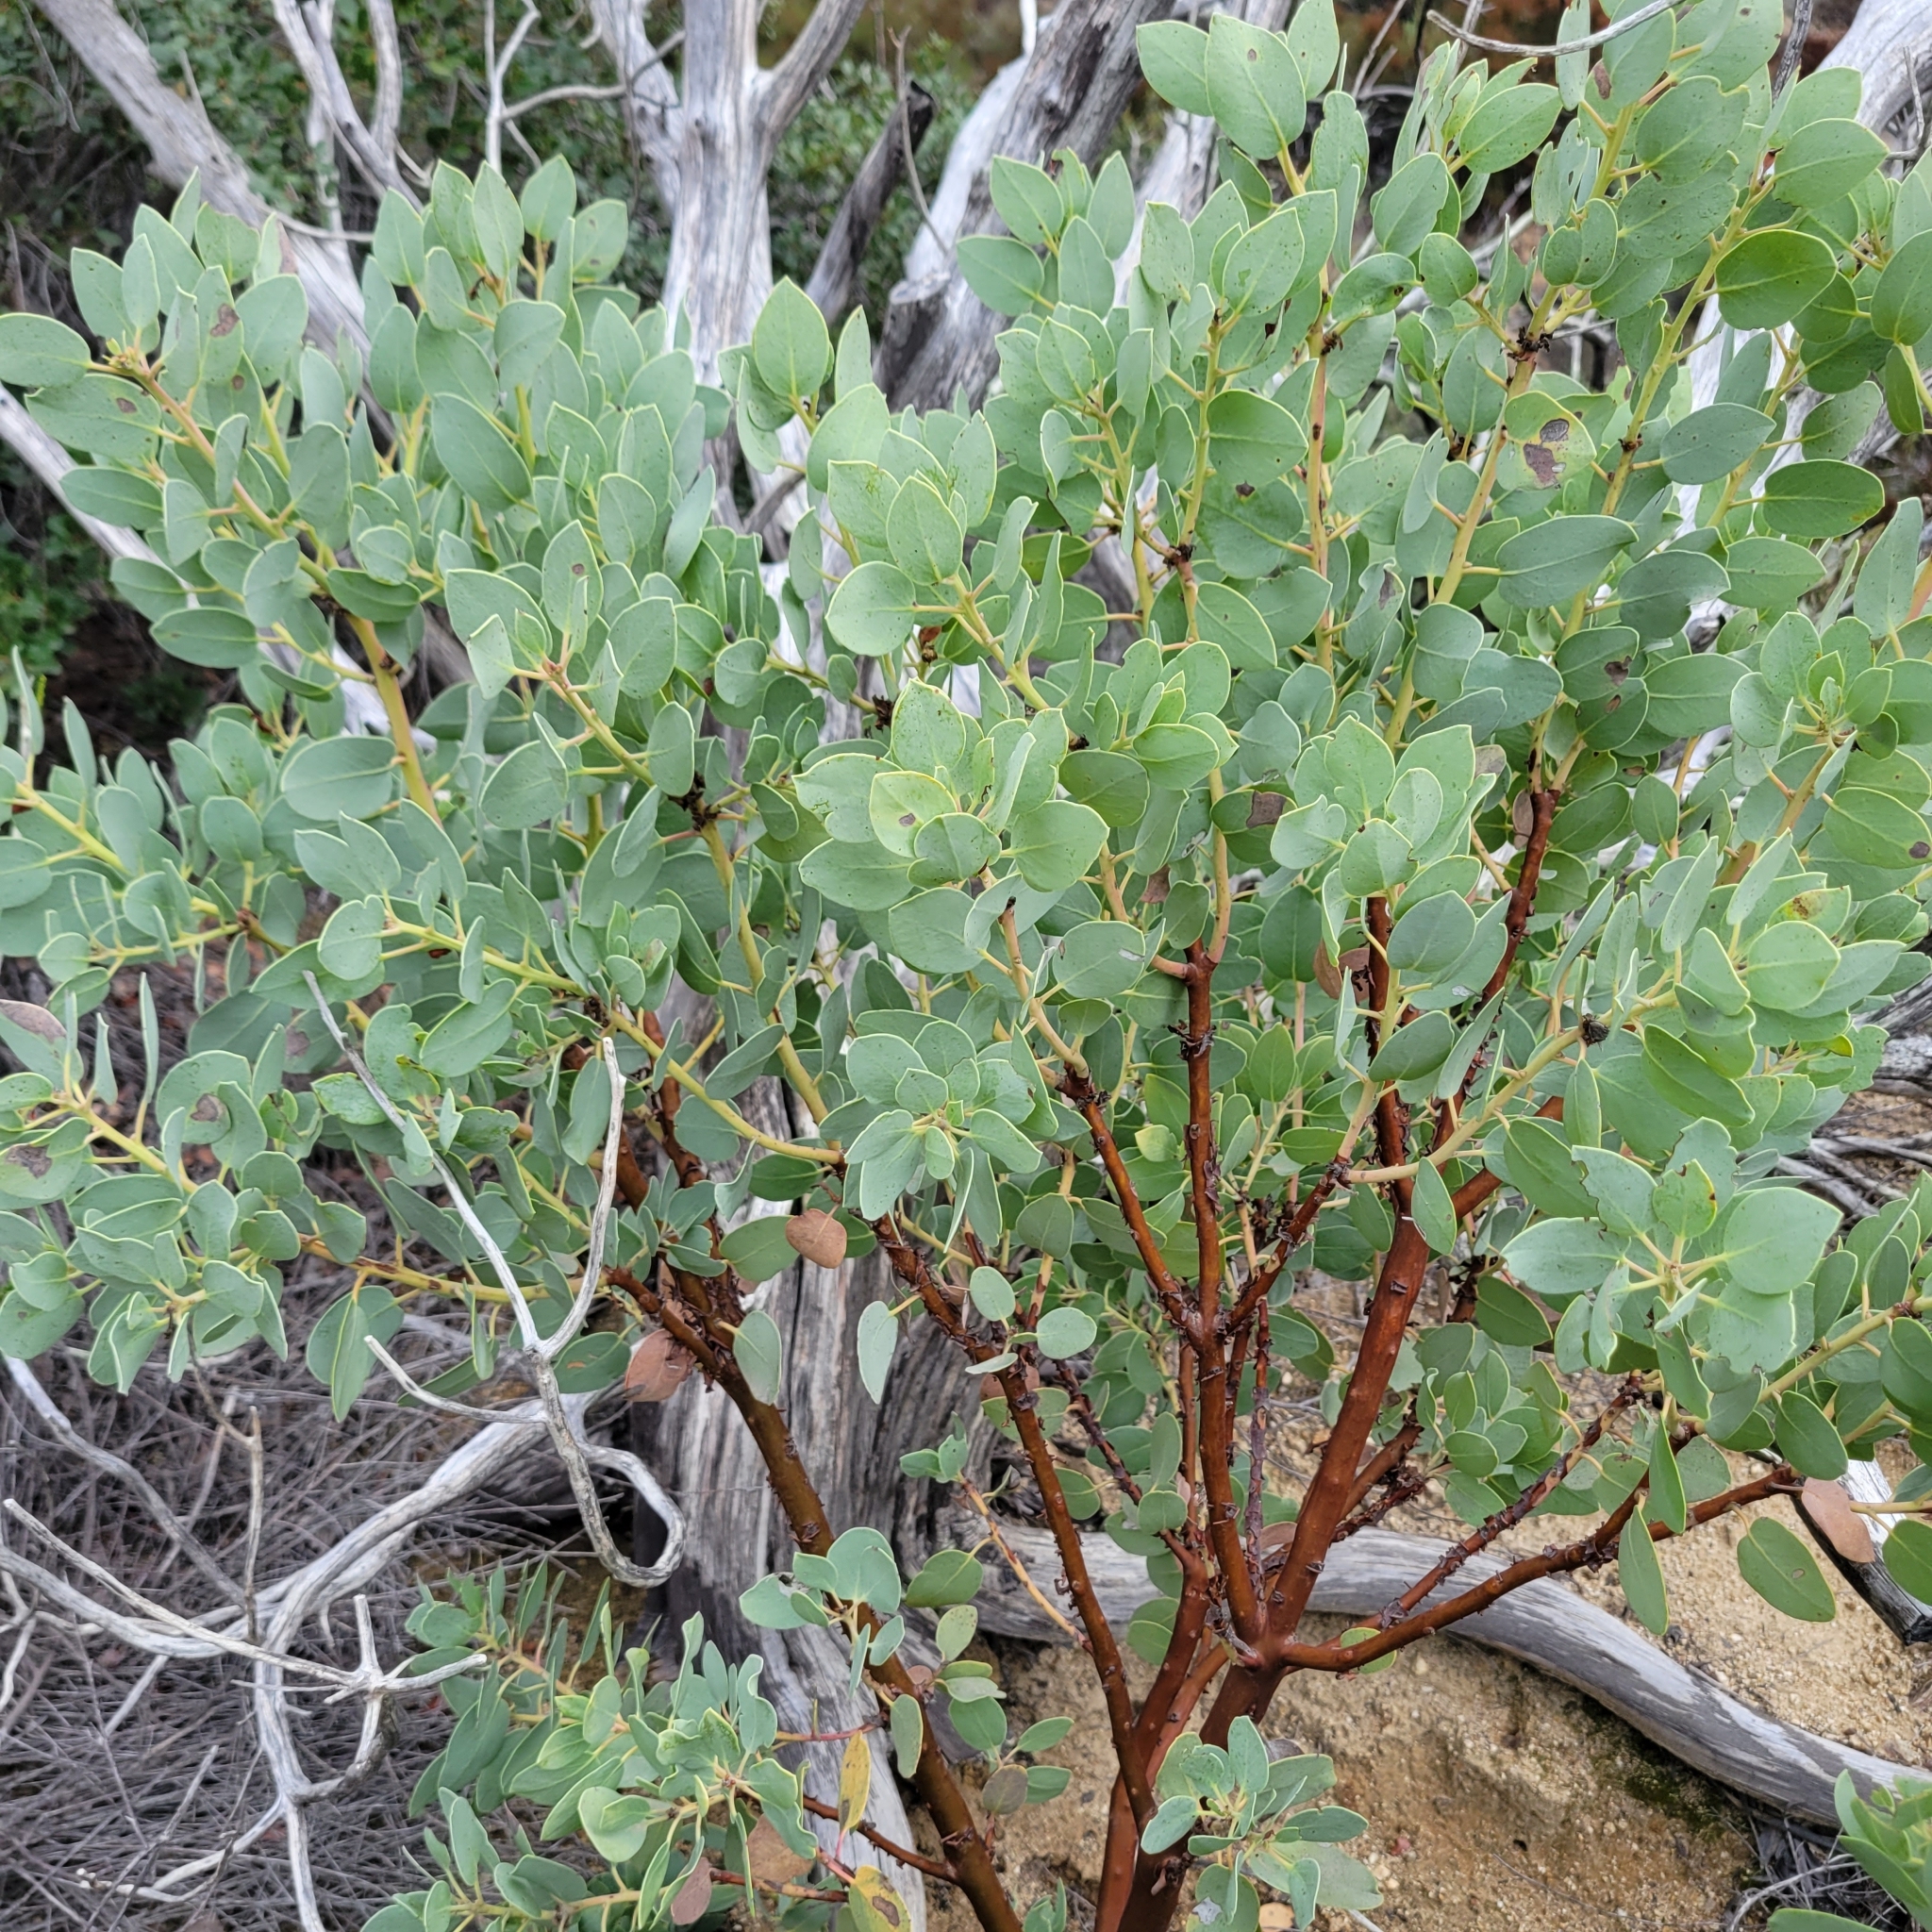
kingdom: Plantae
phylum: Tracheophyta
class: Magnoliopsida
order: Ericales
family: Ericaceae
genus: Arctostaphylos
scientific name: Arctostaphylos glauca
